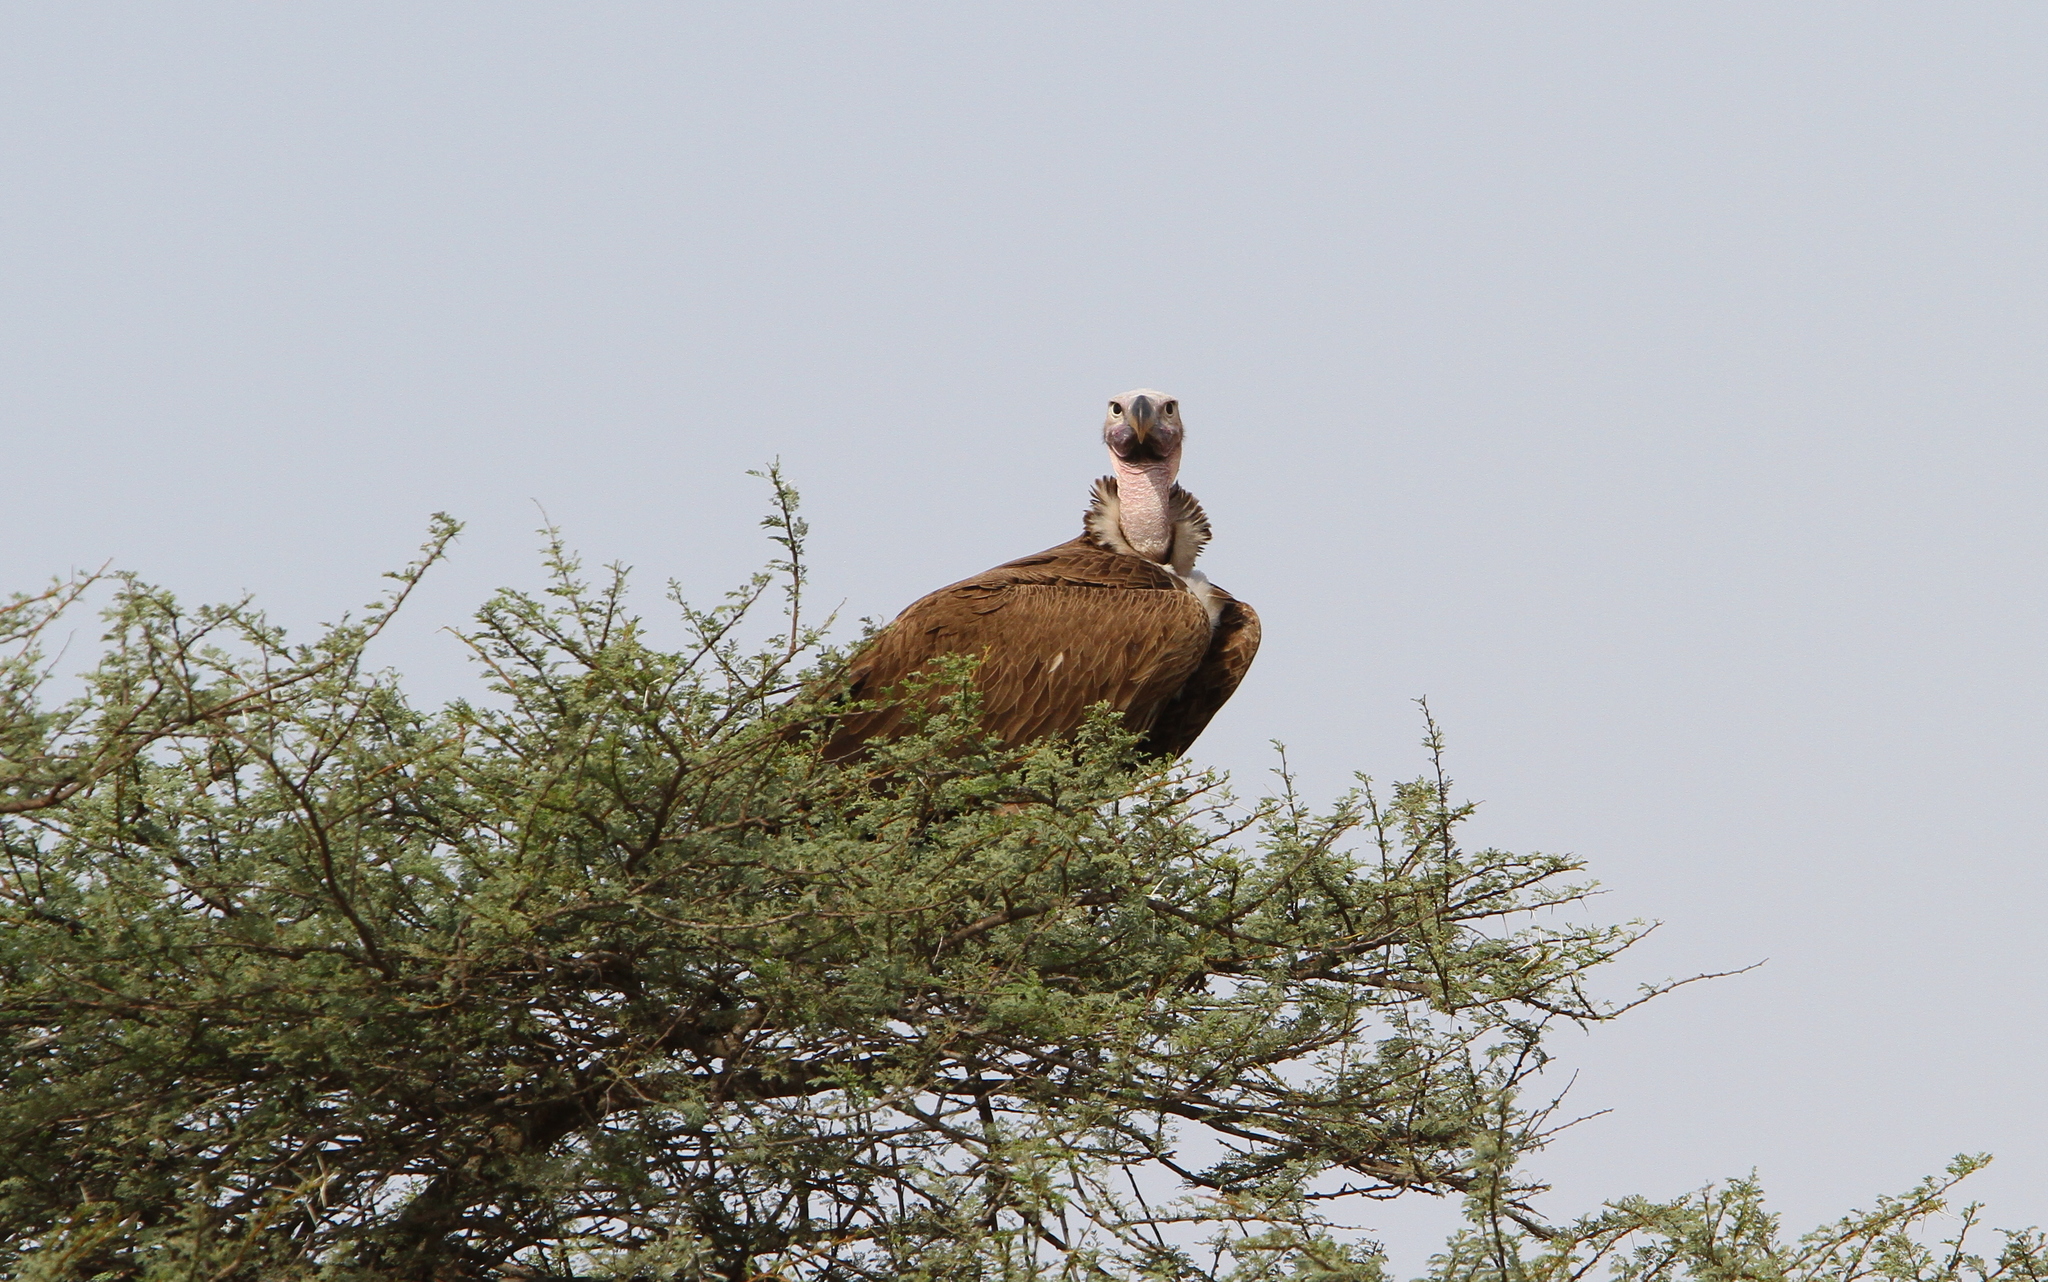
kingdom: Animalia
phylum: Chordata
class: Aves
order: Accipitriformes
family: Accipitridae
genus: Torgos
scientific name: Torgos tracheliotos
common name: Lappet-faced vulture
